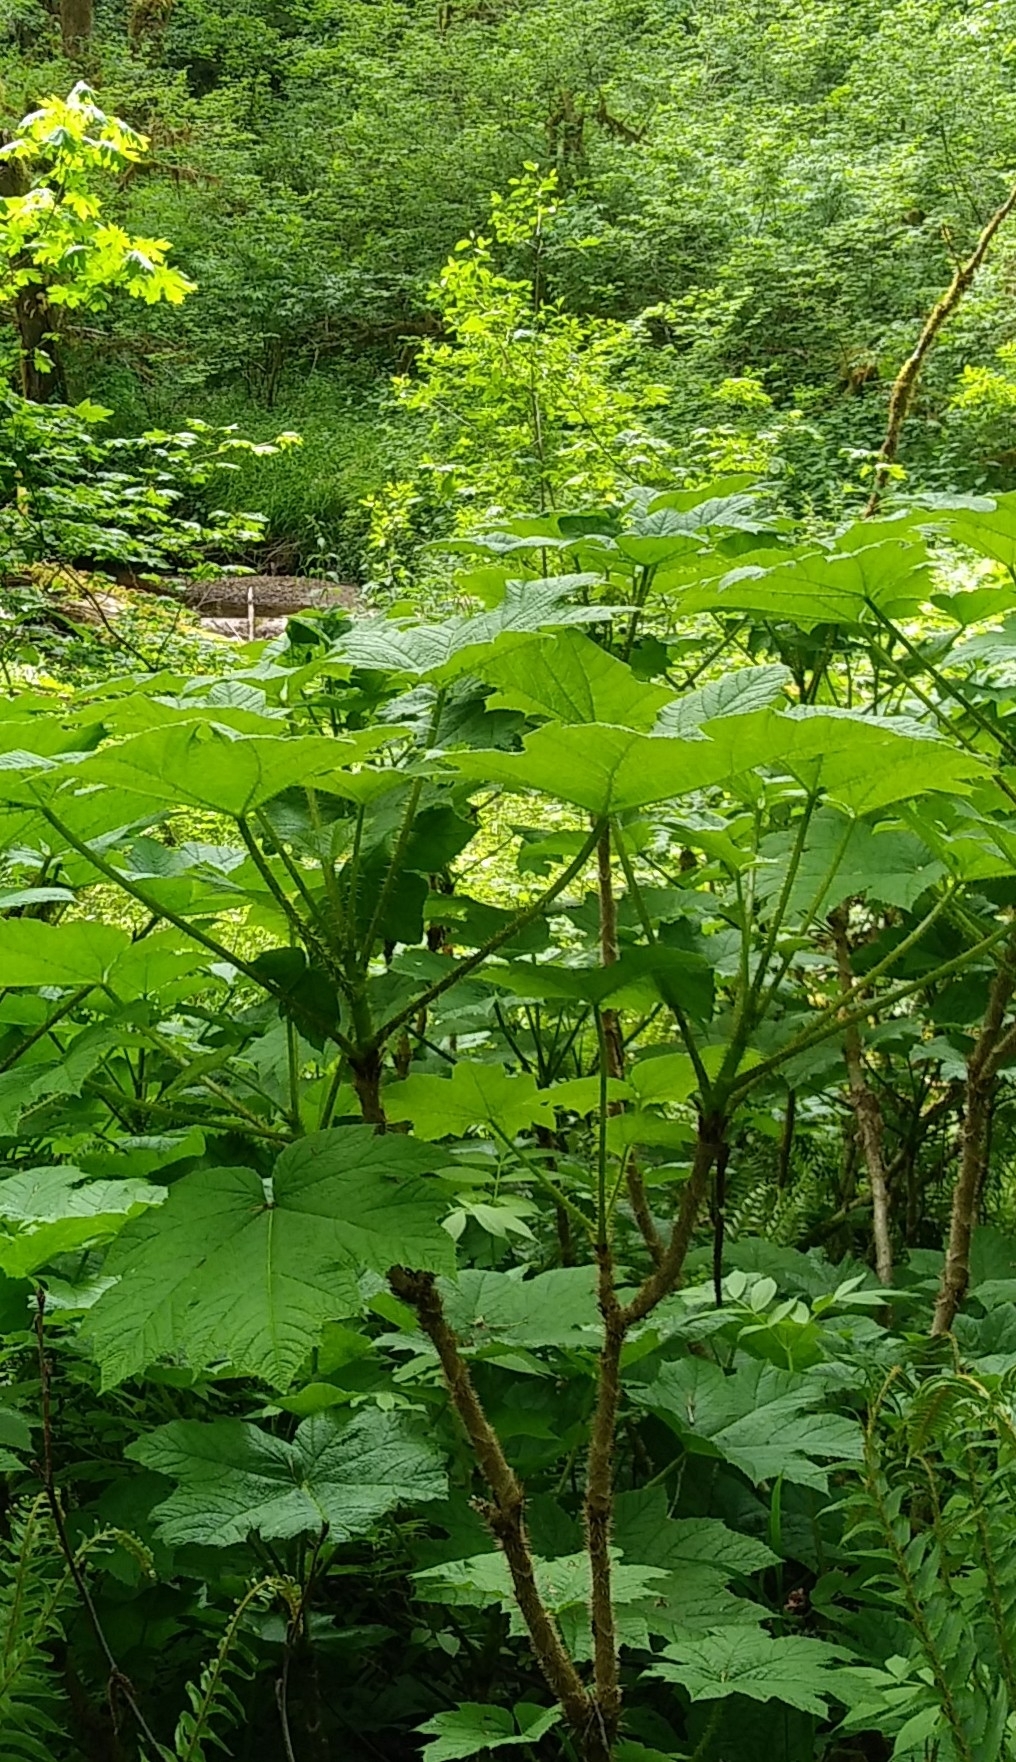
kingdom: Plantae
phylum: Tracheophyta
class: Magnoliopsida
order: Apiales
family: Araliaceae
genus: Oplopanax
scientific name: Oplopanax horridus
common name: Devil's walking-stick
